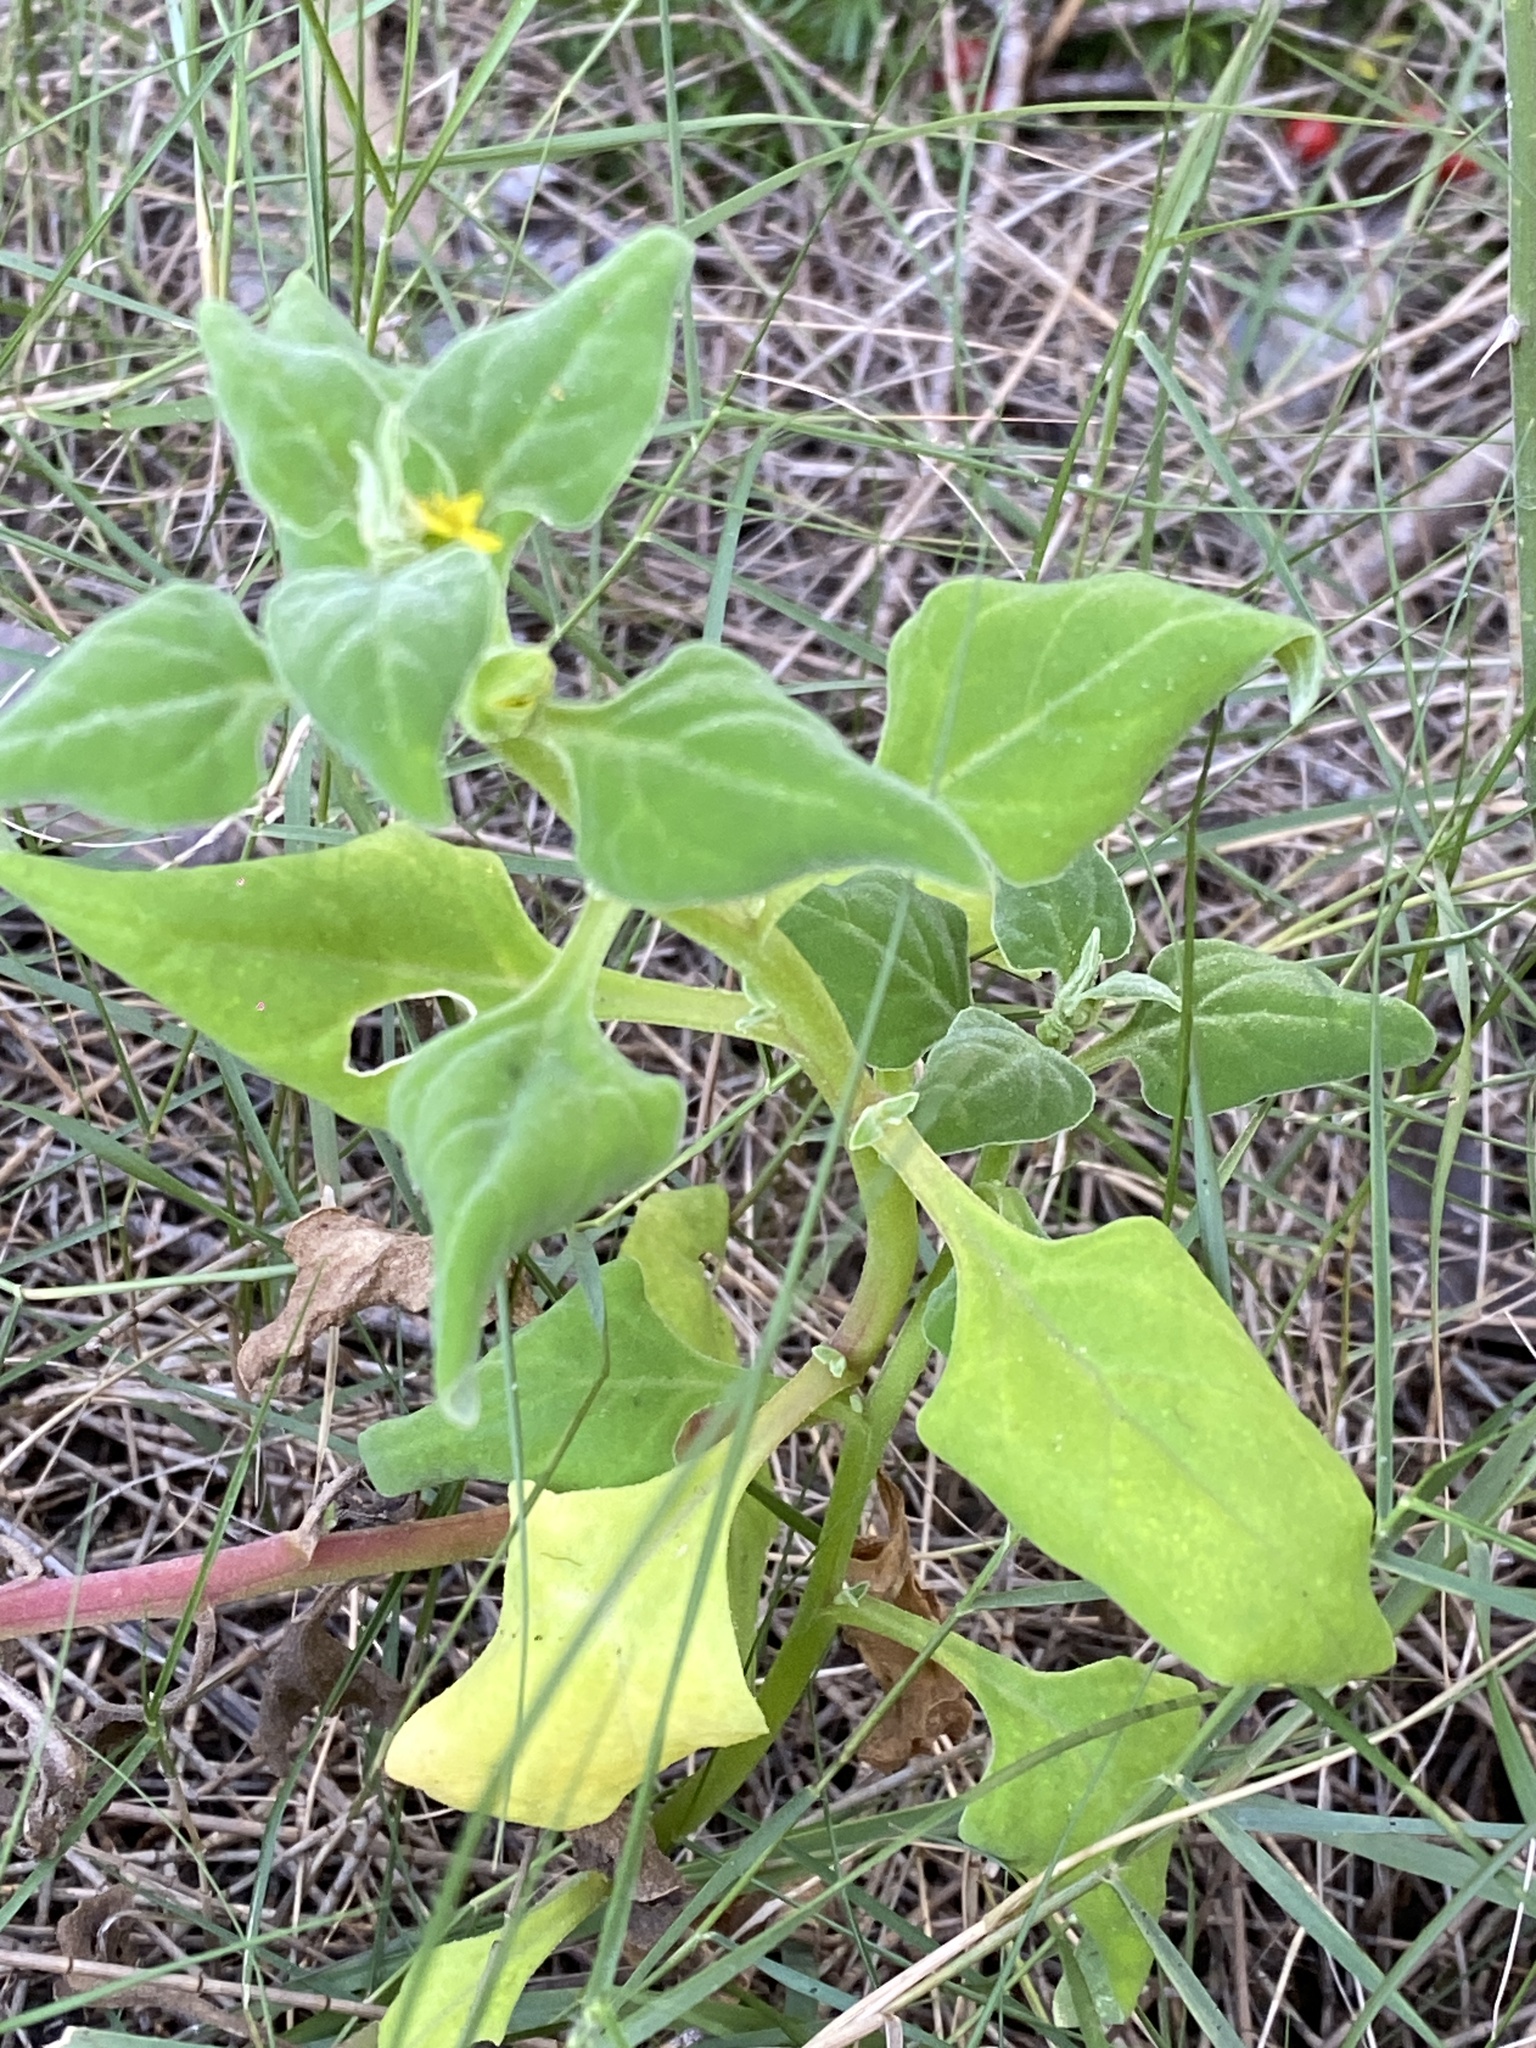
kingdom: Plantae
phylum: Tracheophyta
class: Magnoliopsida
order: Caryophyllales
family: Aizoaceae
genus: Tetragonia
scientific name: Tetragonia tetragonoides
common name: New zealand-spinach
